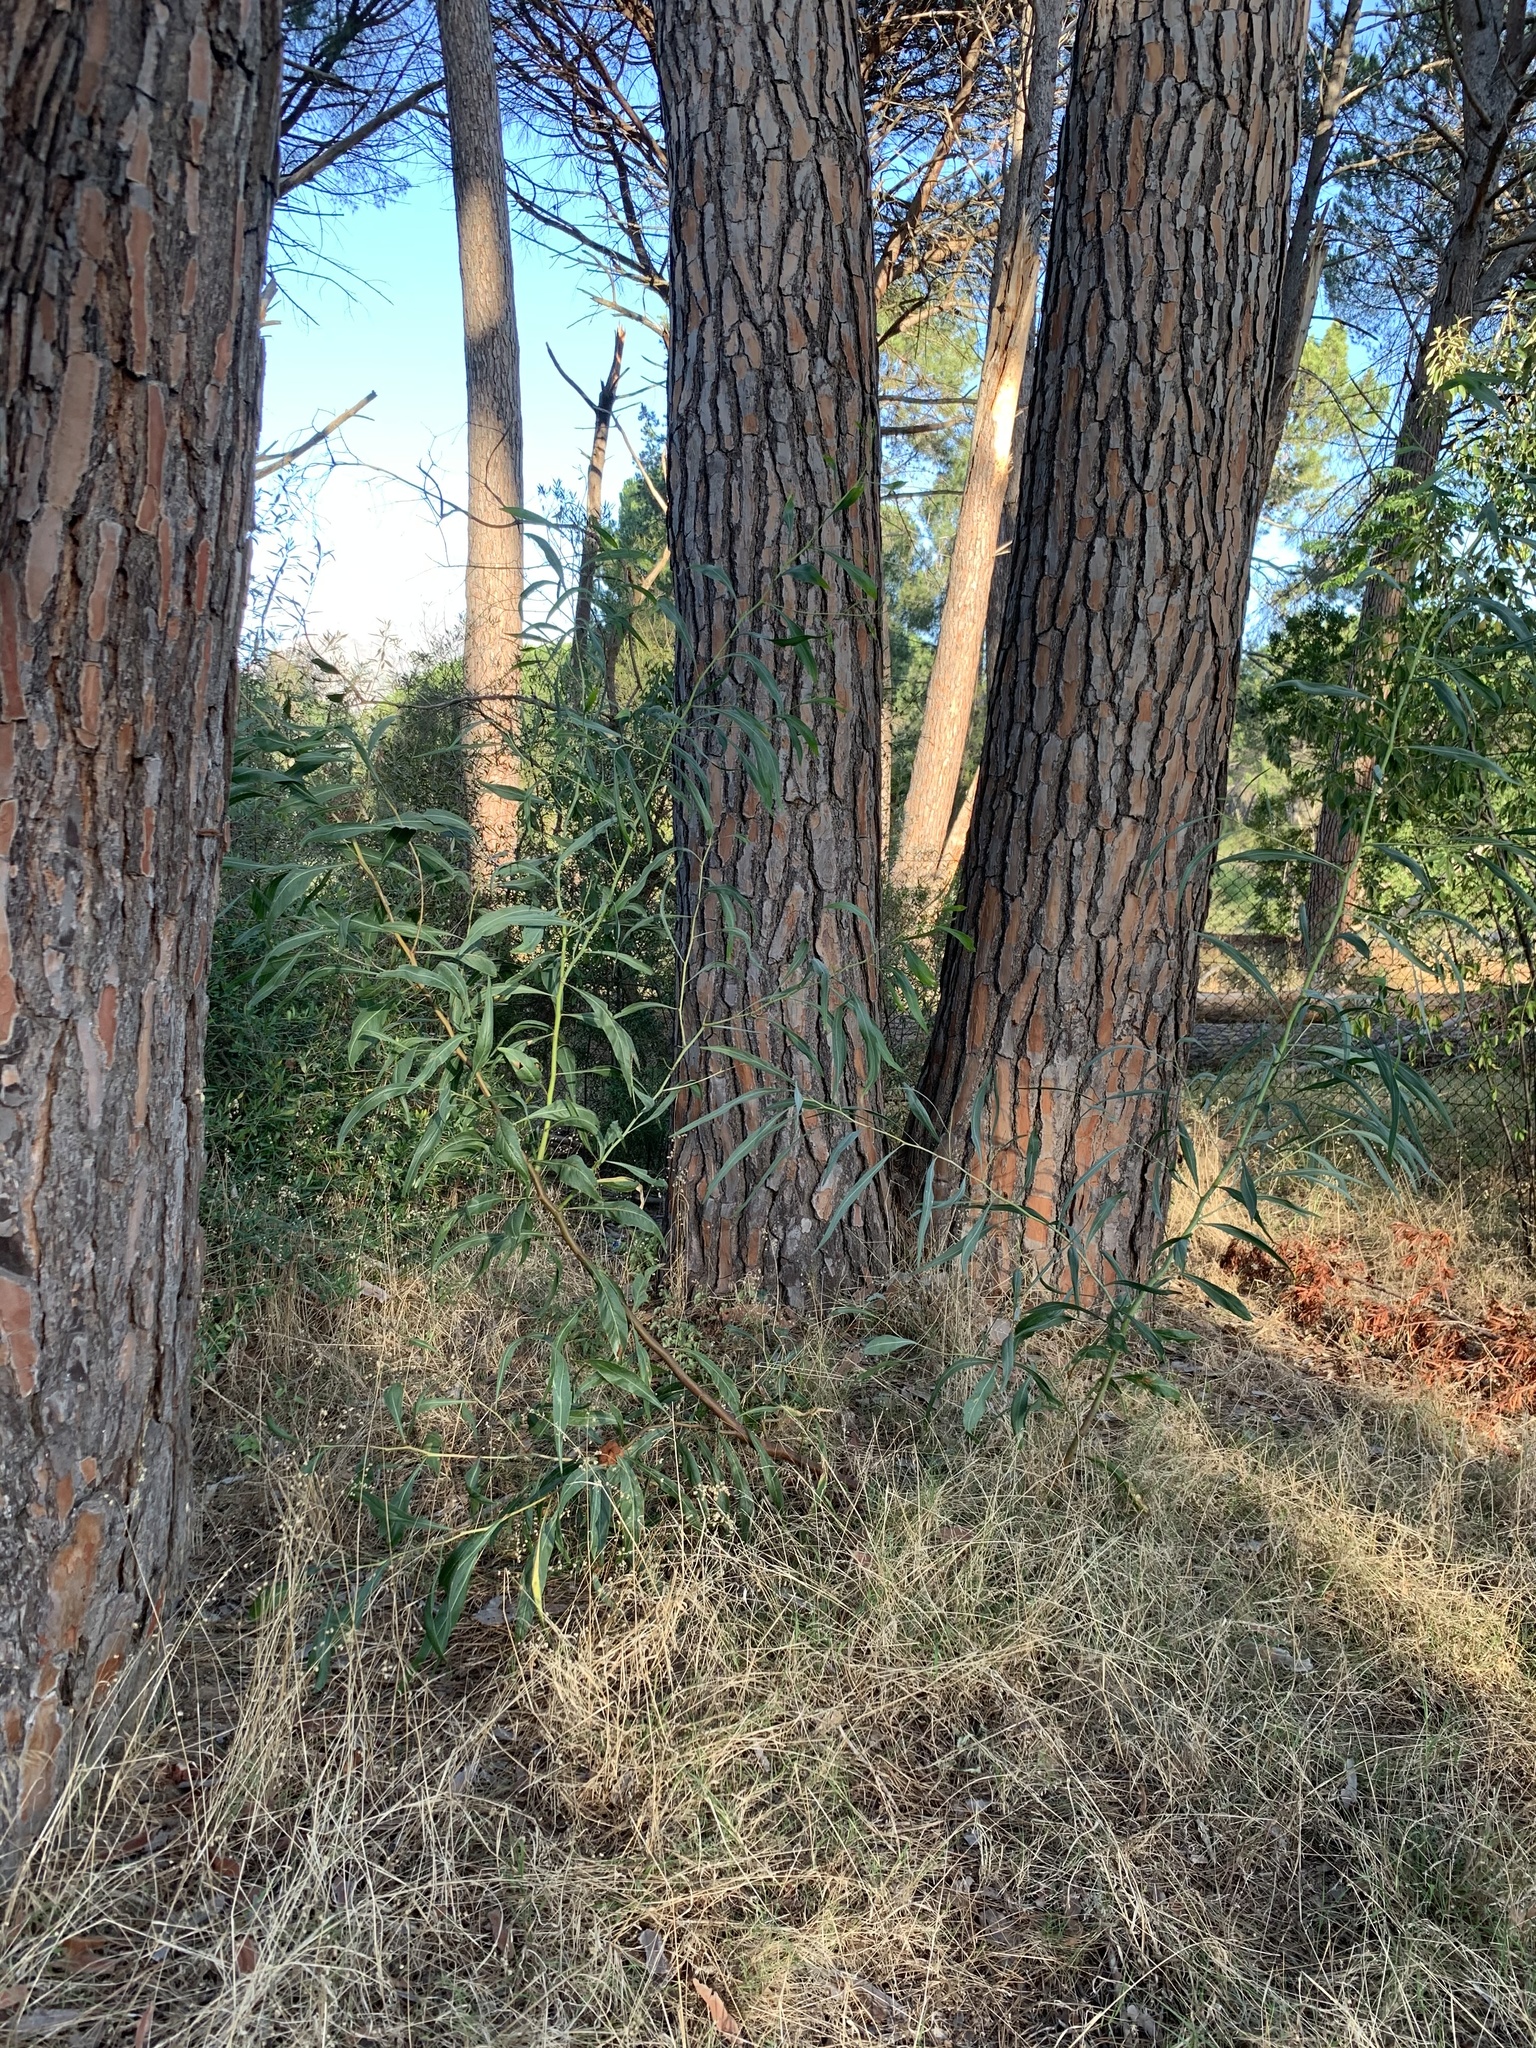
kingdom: Plantae
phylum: Tracheophyta
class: Magnoliopsida
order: Fabales
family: Fabaceae
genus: Acacia
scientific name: Acacia saligna
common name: Orange wattle
